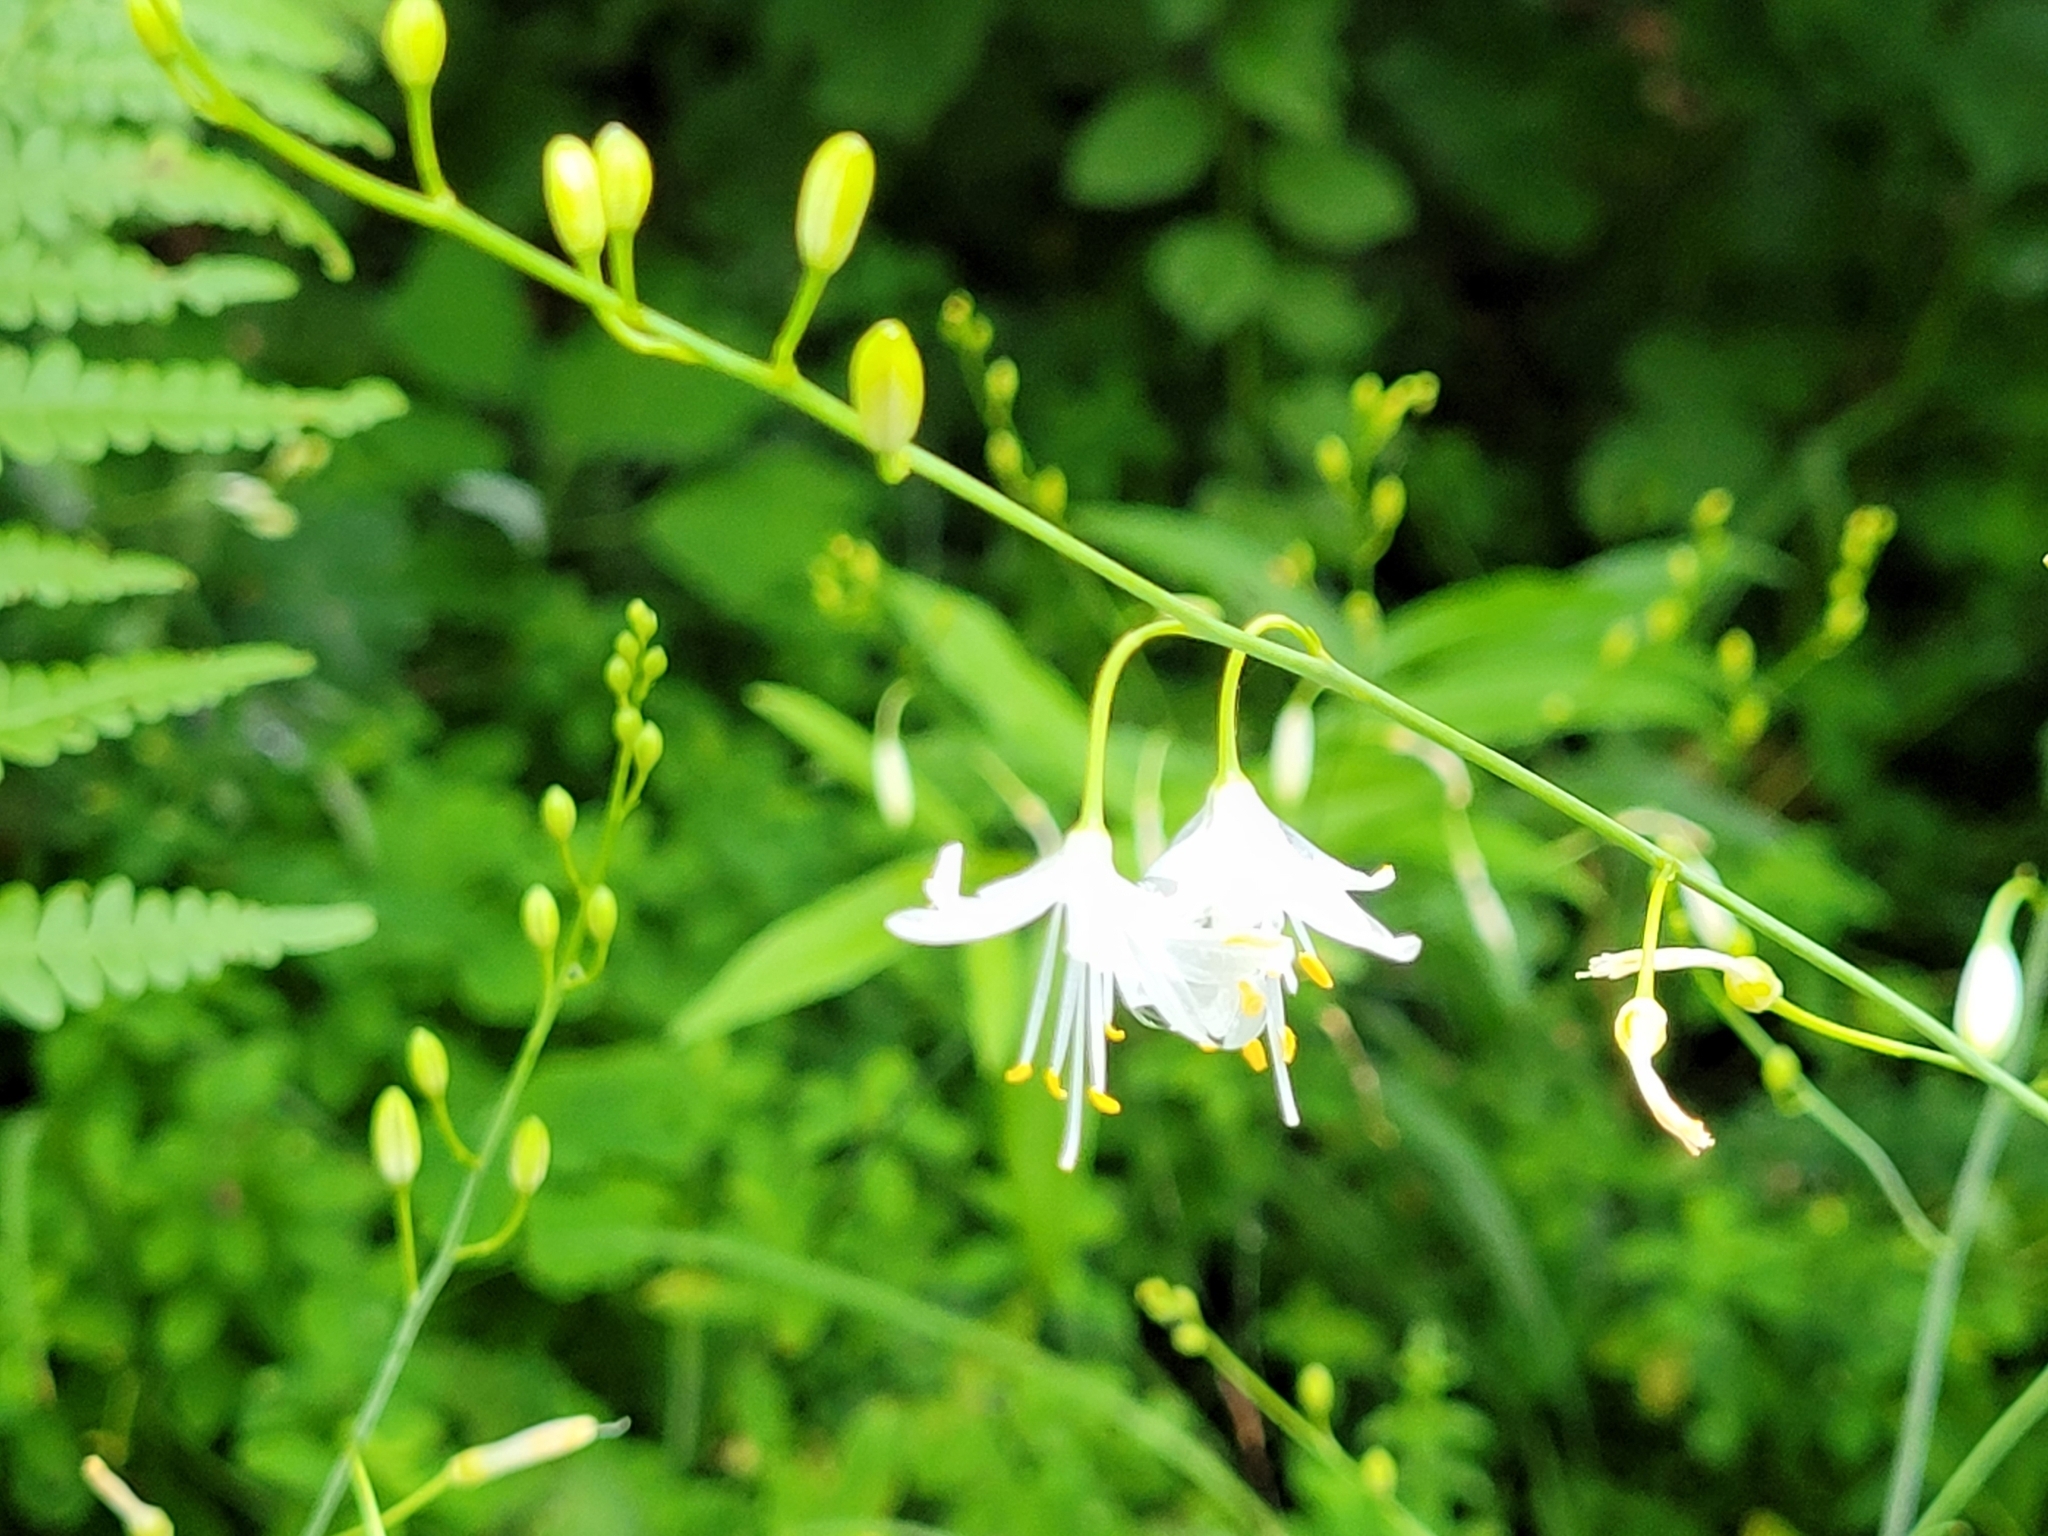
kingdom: Plantae
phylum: Tracheophyta
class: Liliopsida
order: Asparagales
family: Asparagaceae
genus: Anthericum
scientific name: Anthericum ramosum
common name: Branched st. bernard's-lily
